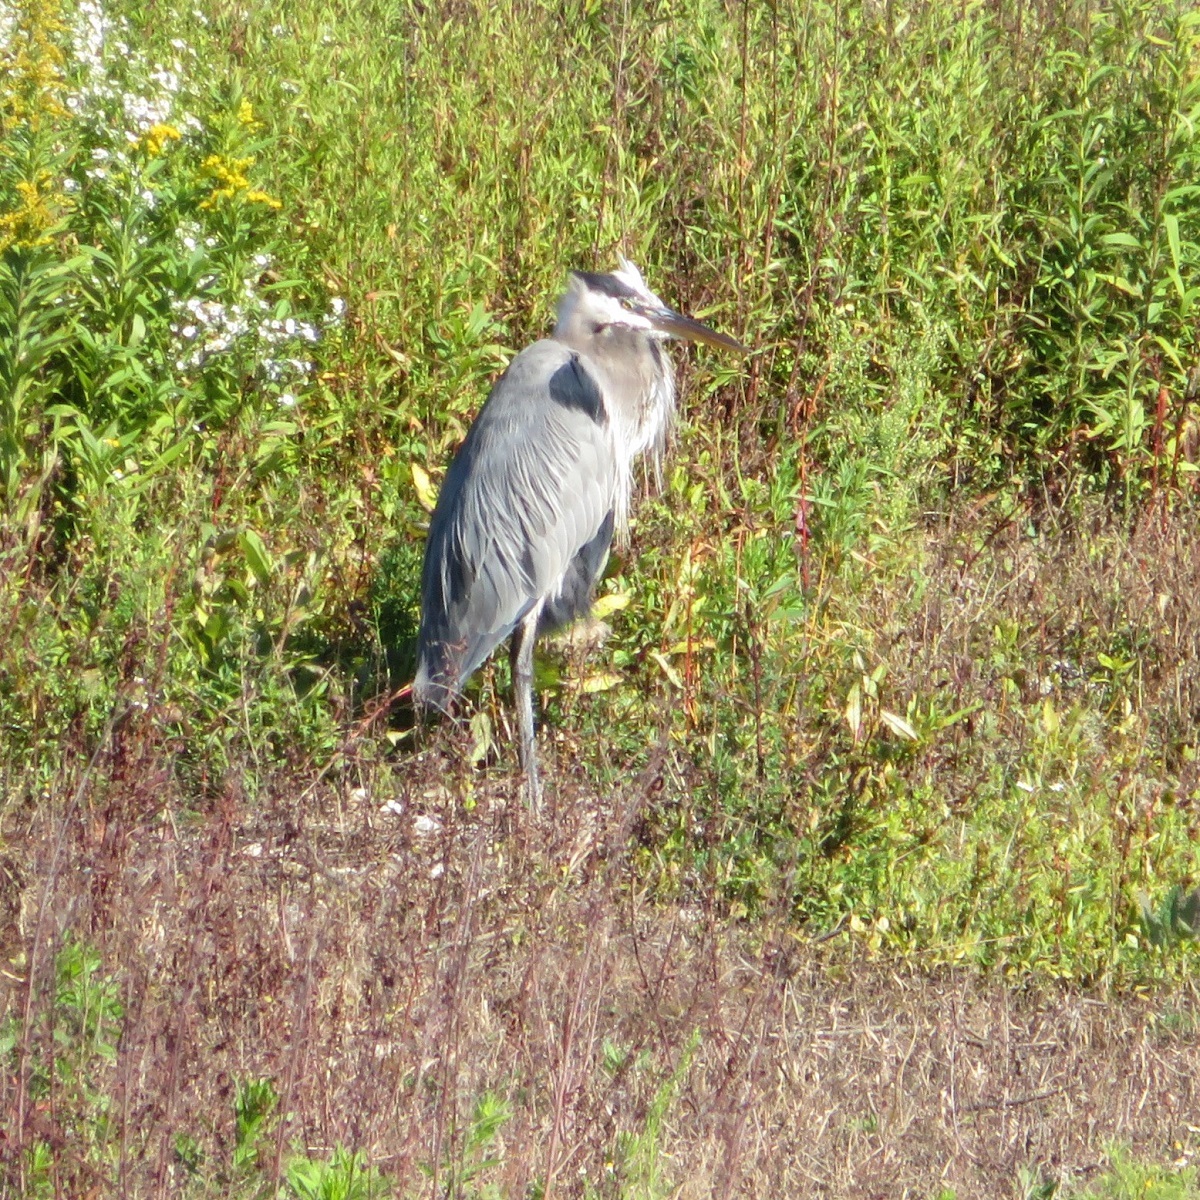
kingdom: Animalia
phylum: Chordata
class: Aves
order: Pelecaniformes
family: Ardeidae
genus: Ardea
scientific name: Ardea herodias
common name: Great blue heron
